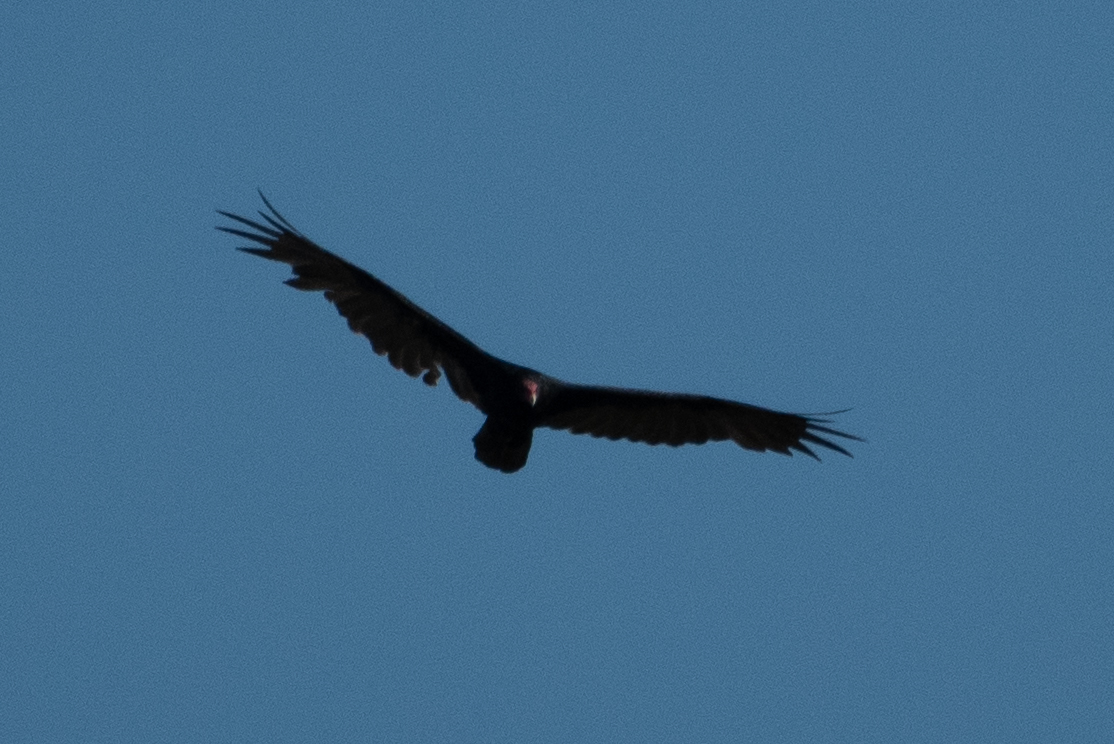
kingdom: Animalia
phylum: Chordata
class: Aves
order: Accipitriformes
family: Cathartidae
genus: Cathartes
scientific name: Cathartes aura
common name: Turkey vulture
